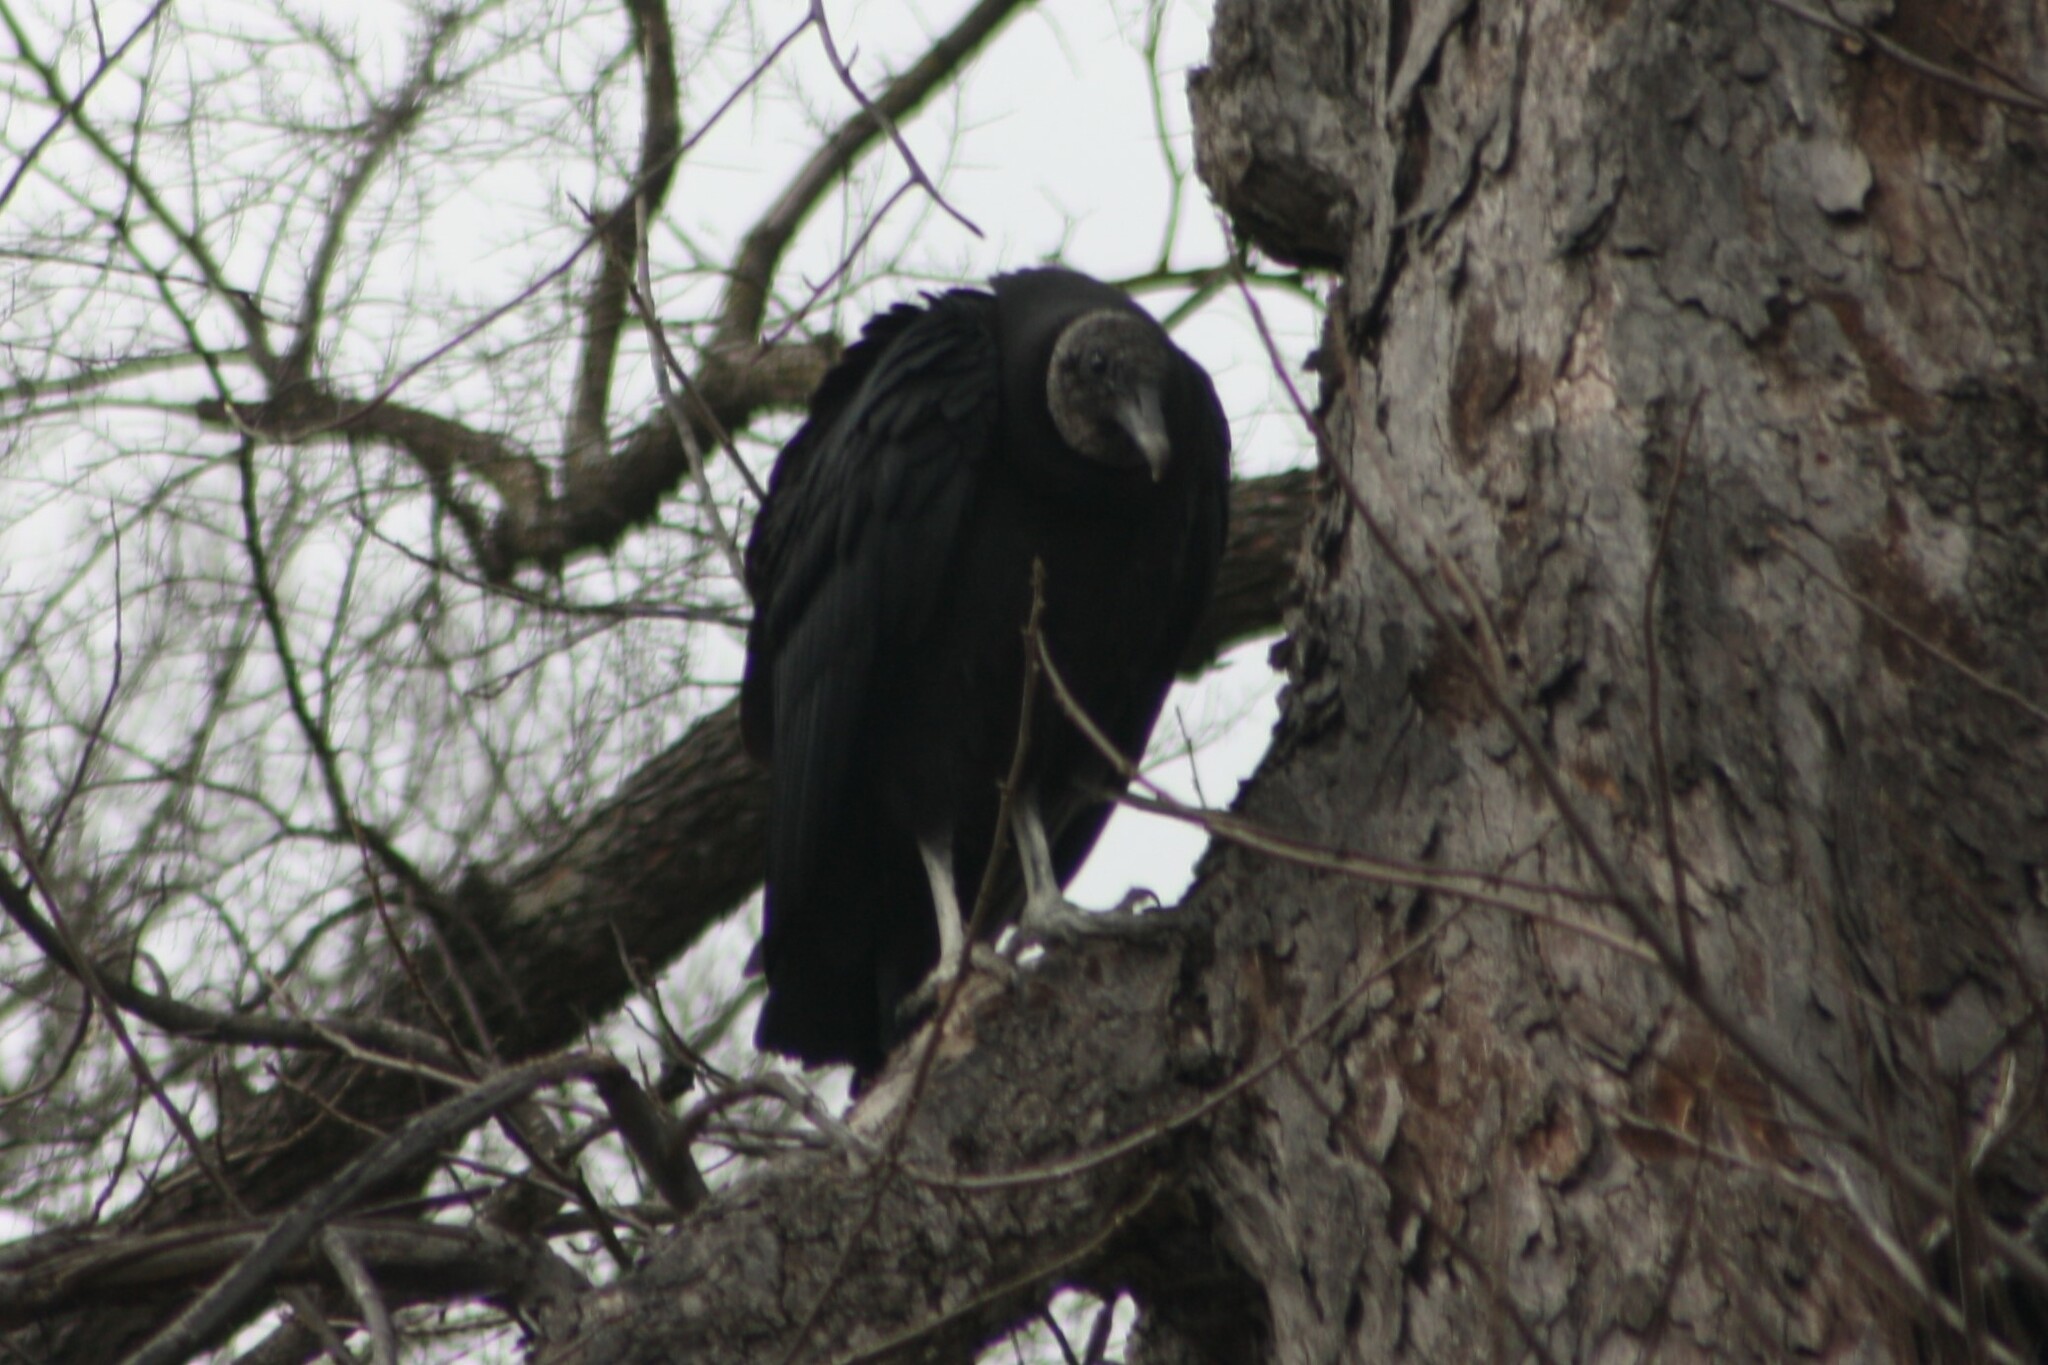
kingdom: Animalia
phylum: Chordata
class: Aves
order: Accipitriformes
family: Cathartidae
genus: Coragyps
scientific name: Coragyps atratus
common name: Black vulture
